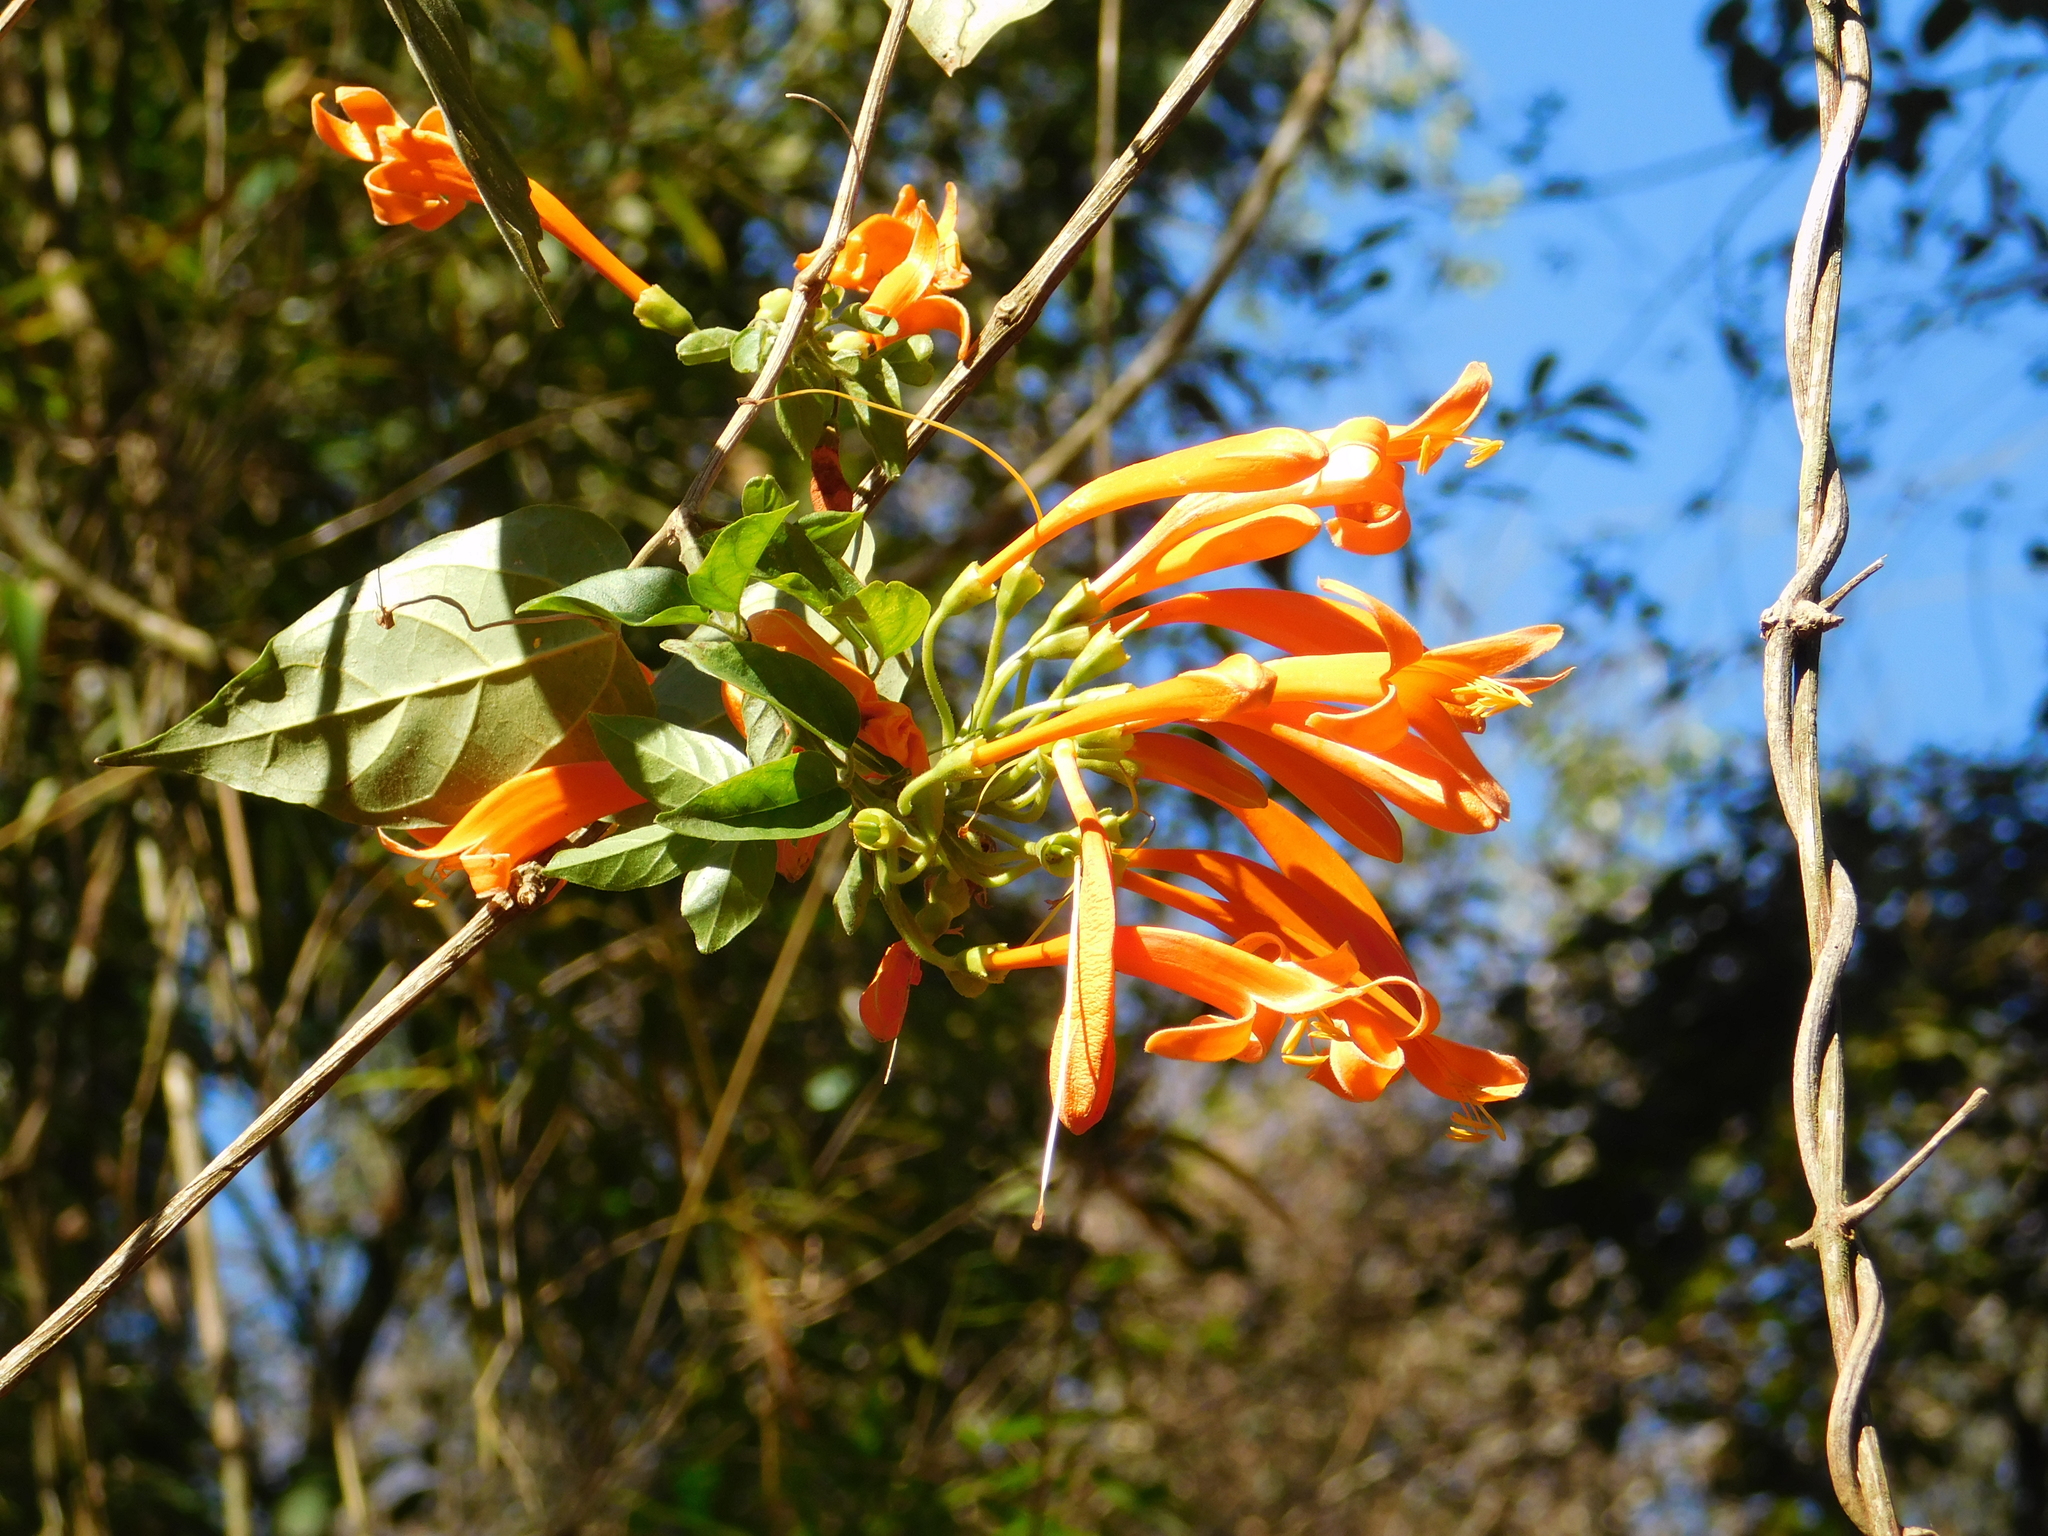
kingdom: Plantae
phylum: Tracheophyta
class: Magnoliopsida
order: Lamiales
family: Bignoniaceae
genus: Pyrostegia
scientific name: Pyrostegia venusta
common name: Flamevine
